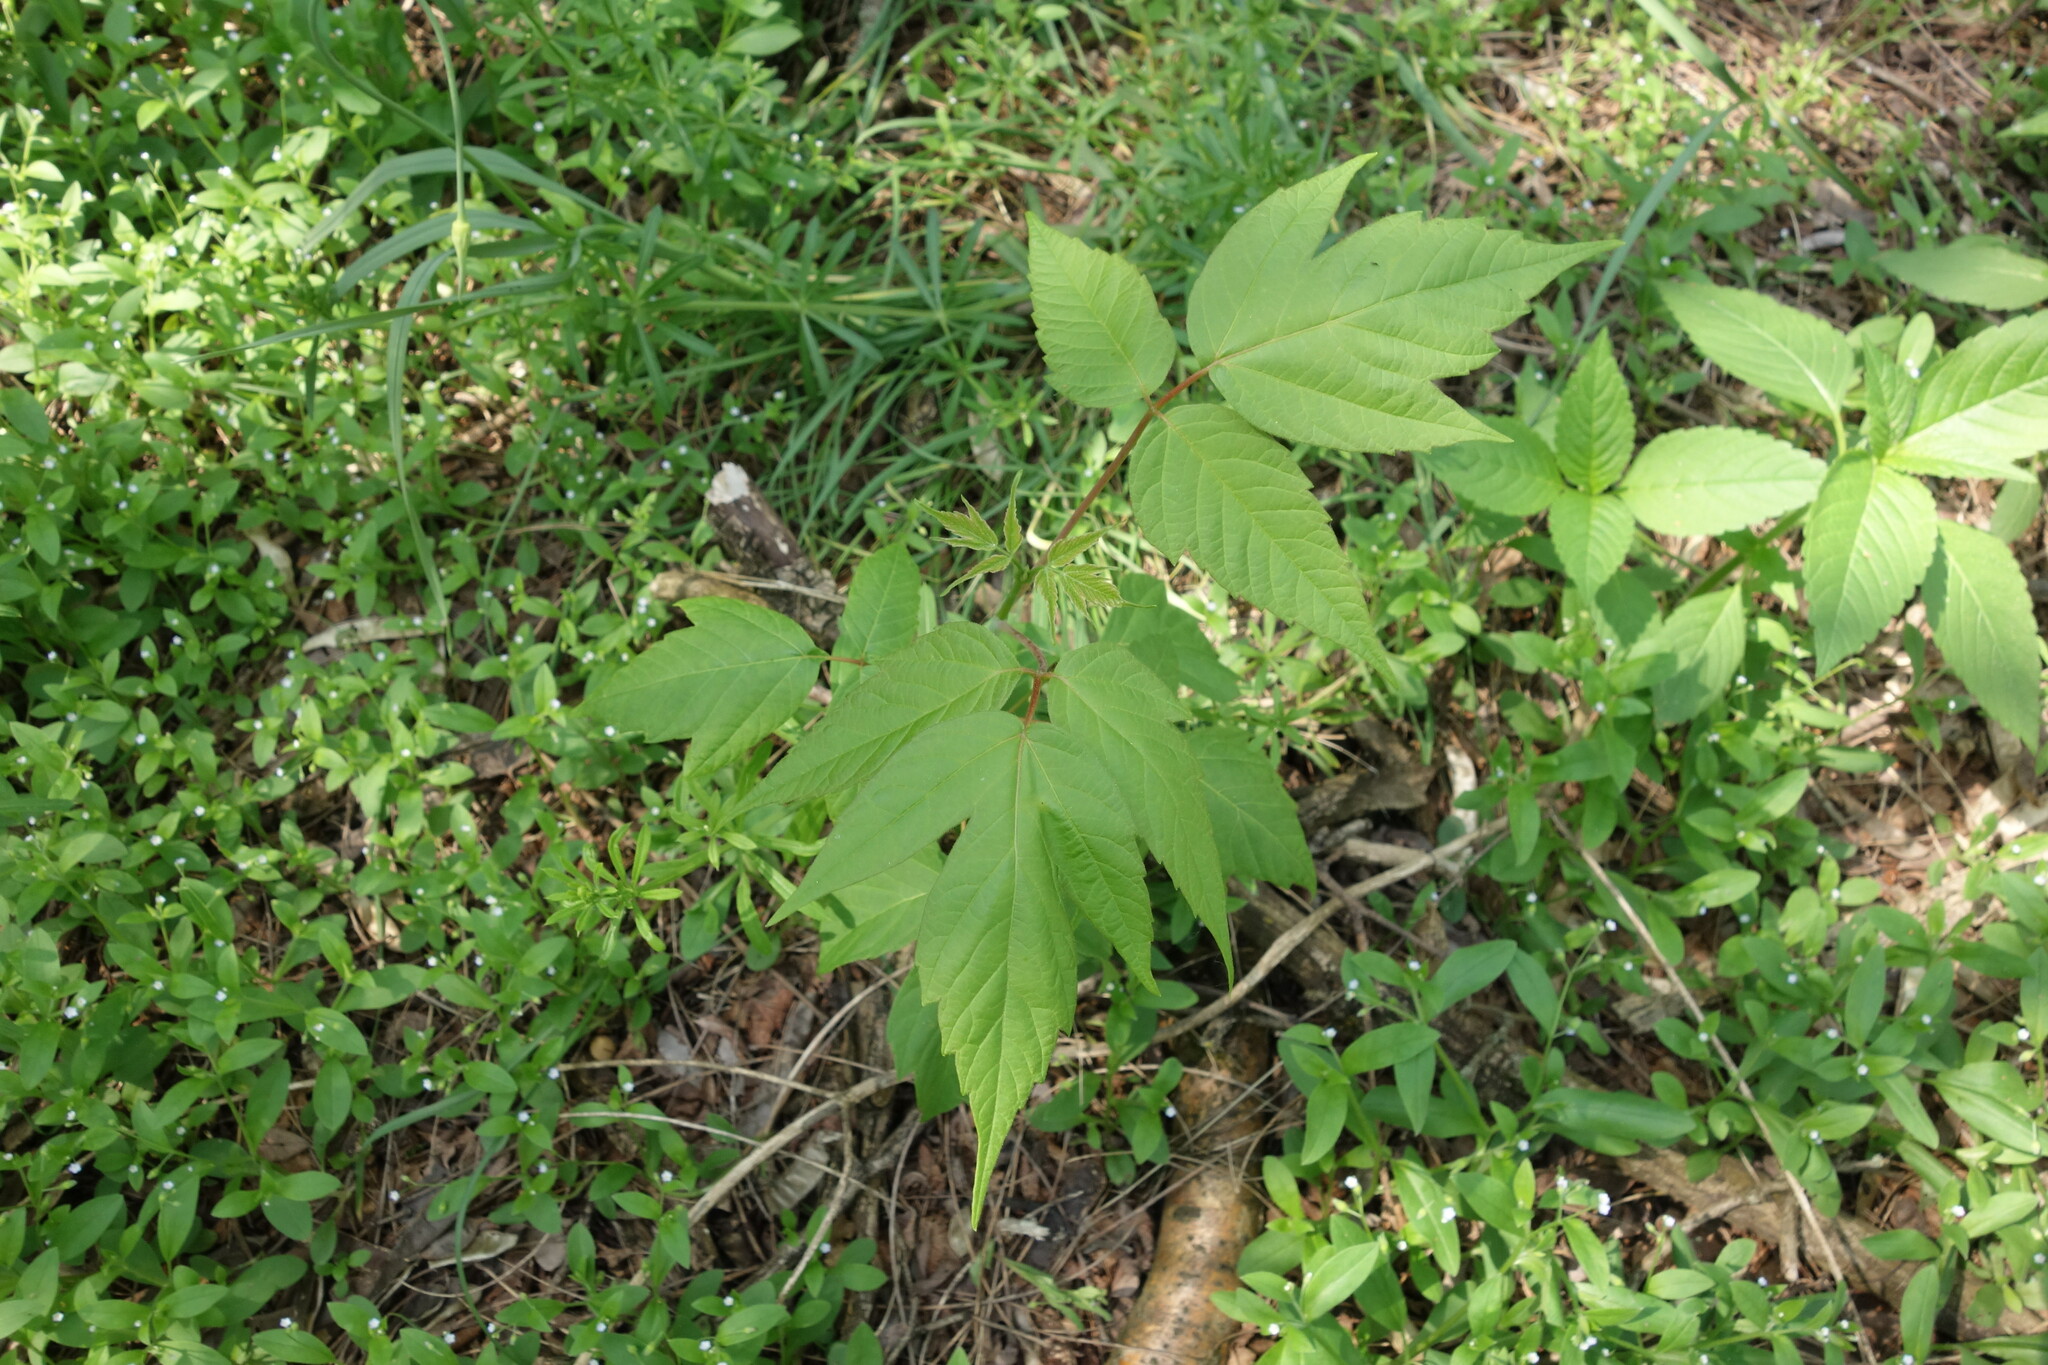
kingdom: Plantae
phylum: Tracheophyta
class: Magnoliopsida
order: Sapindales
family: Sapindaceae
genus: Acer
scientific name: Acer negundo
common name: Ashleaf maple
